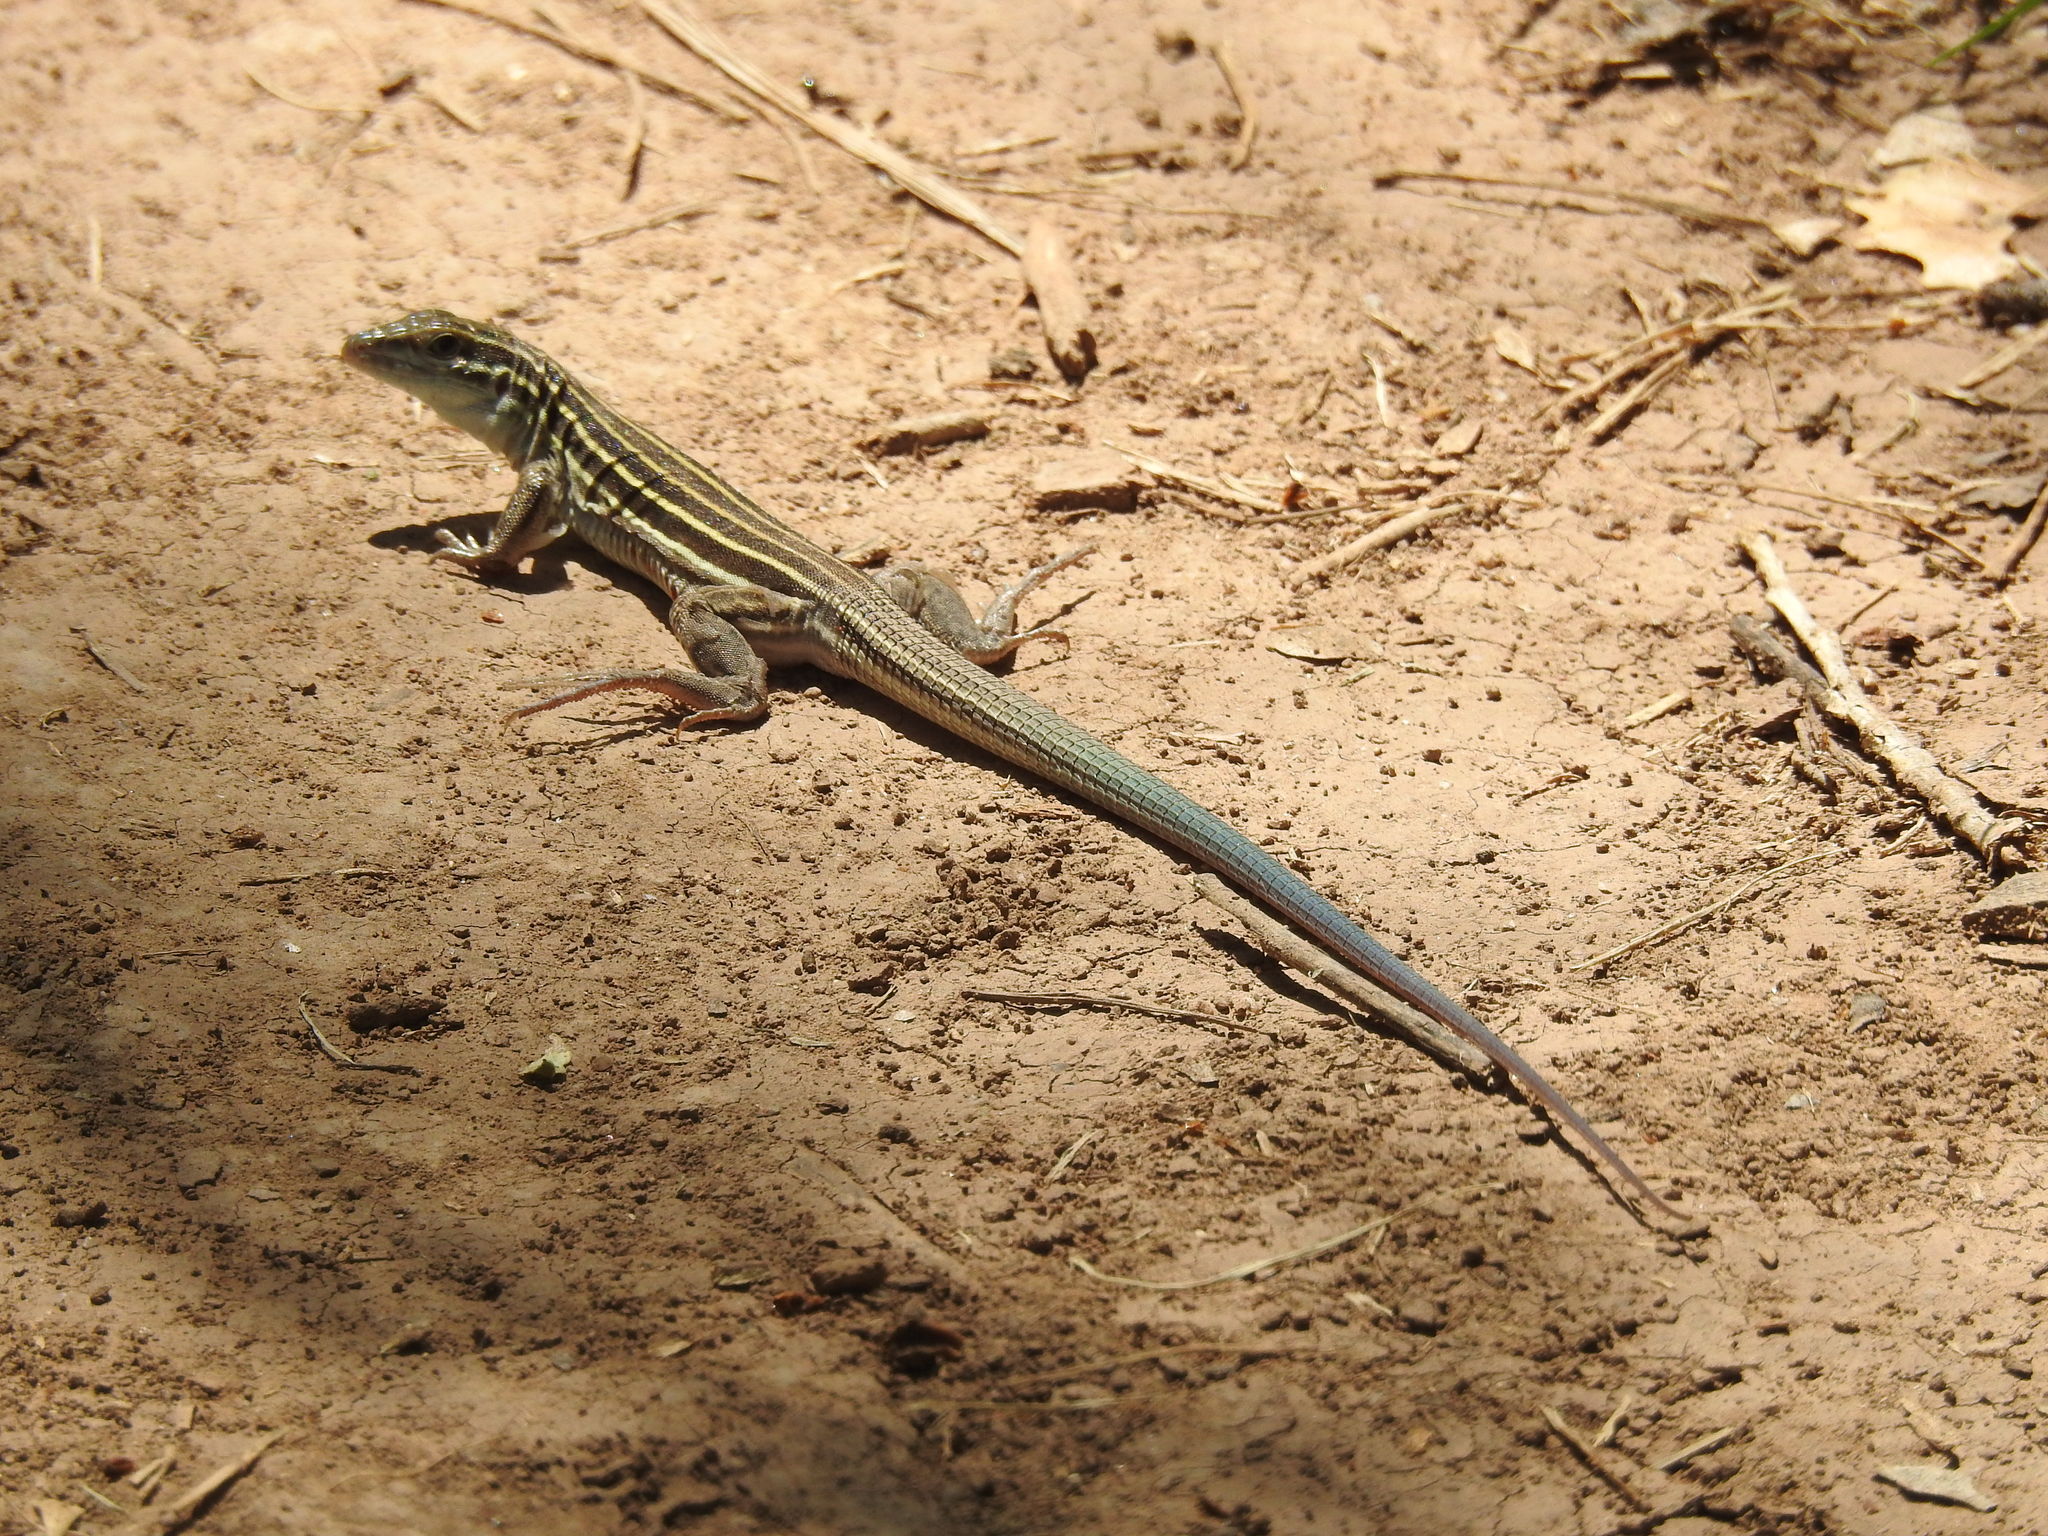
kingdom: Animalia
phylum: Chordata
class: Squamata
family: Teiidae
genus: Aspidoscelis
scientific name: Aspidoscelis uniparens
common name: Desert grassland whiptail
